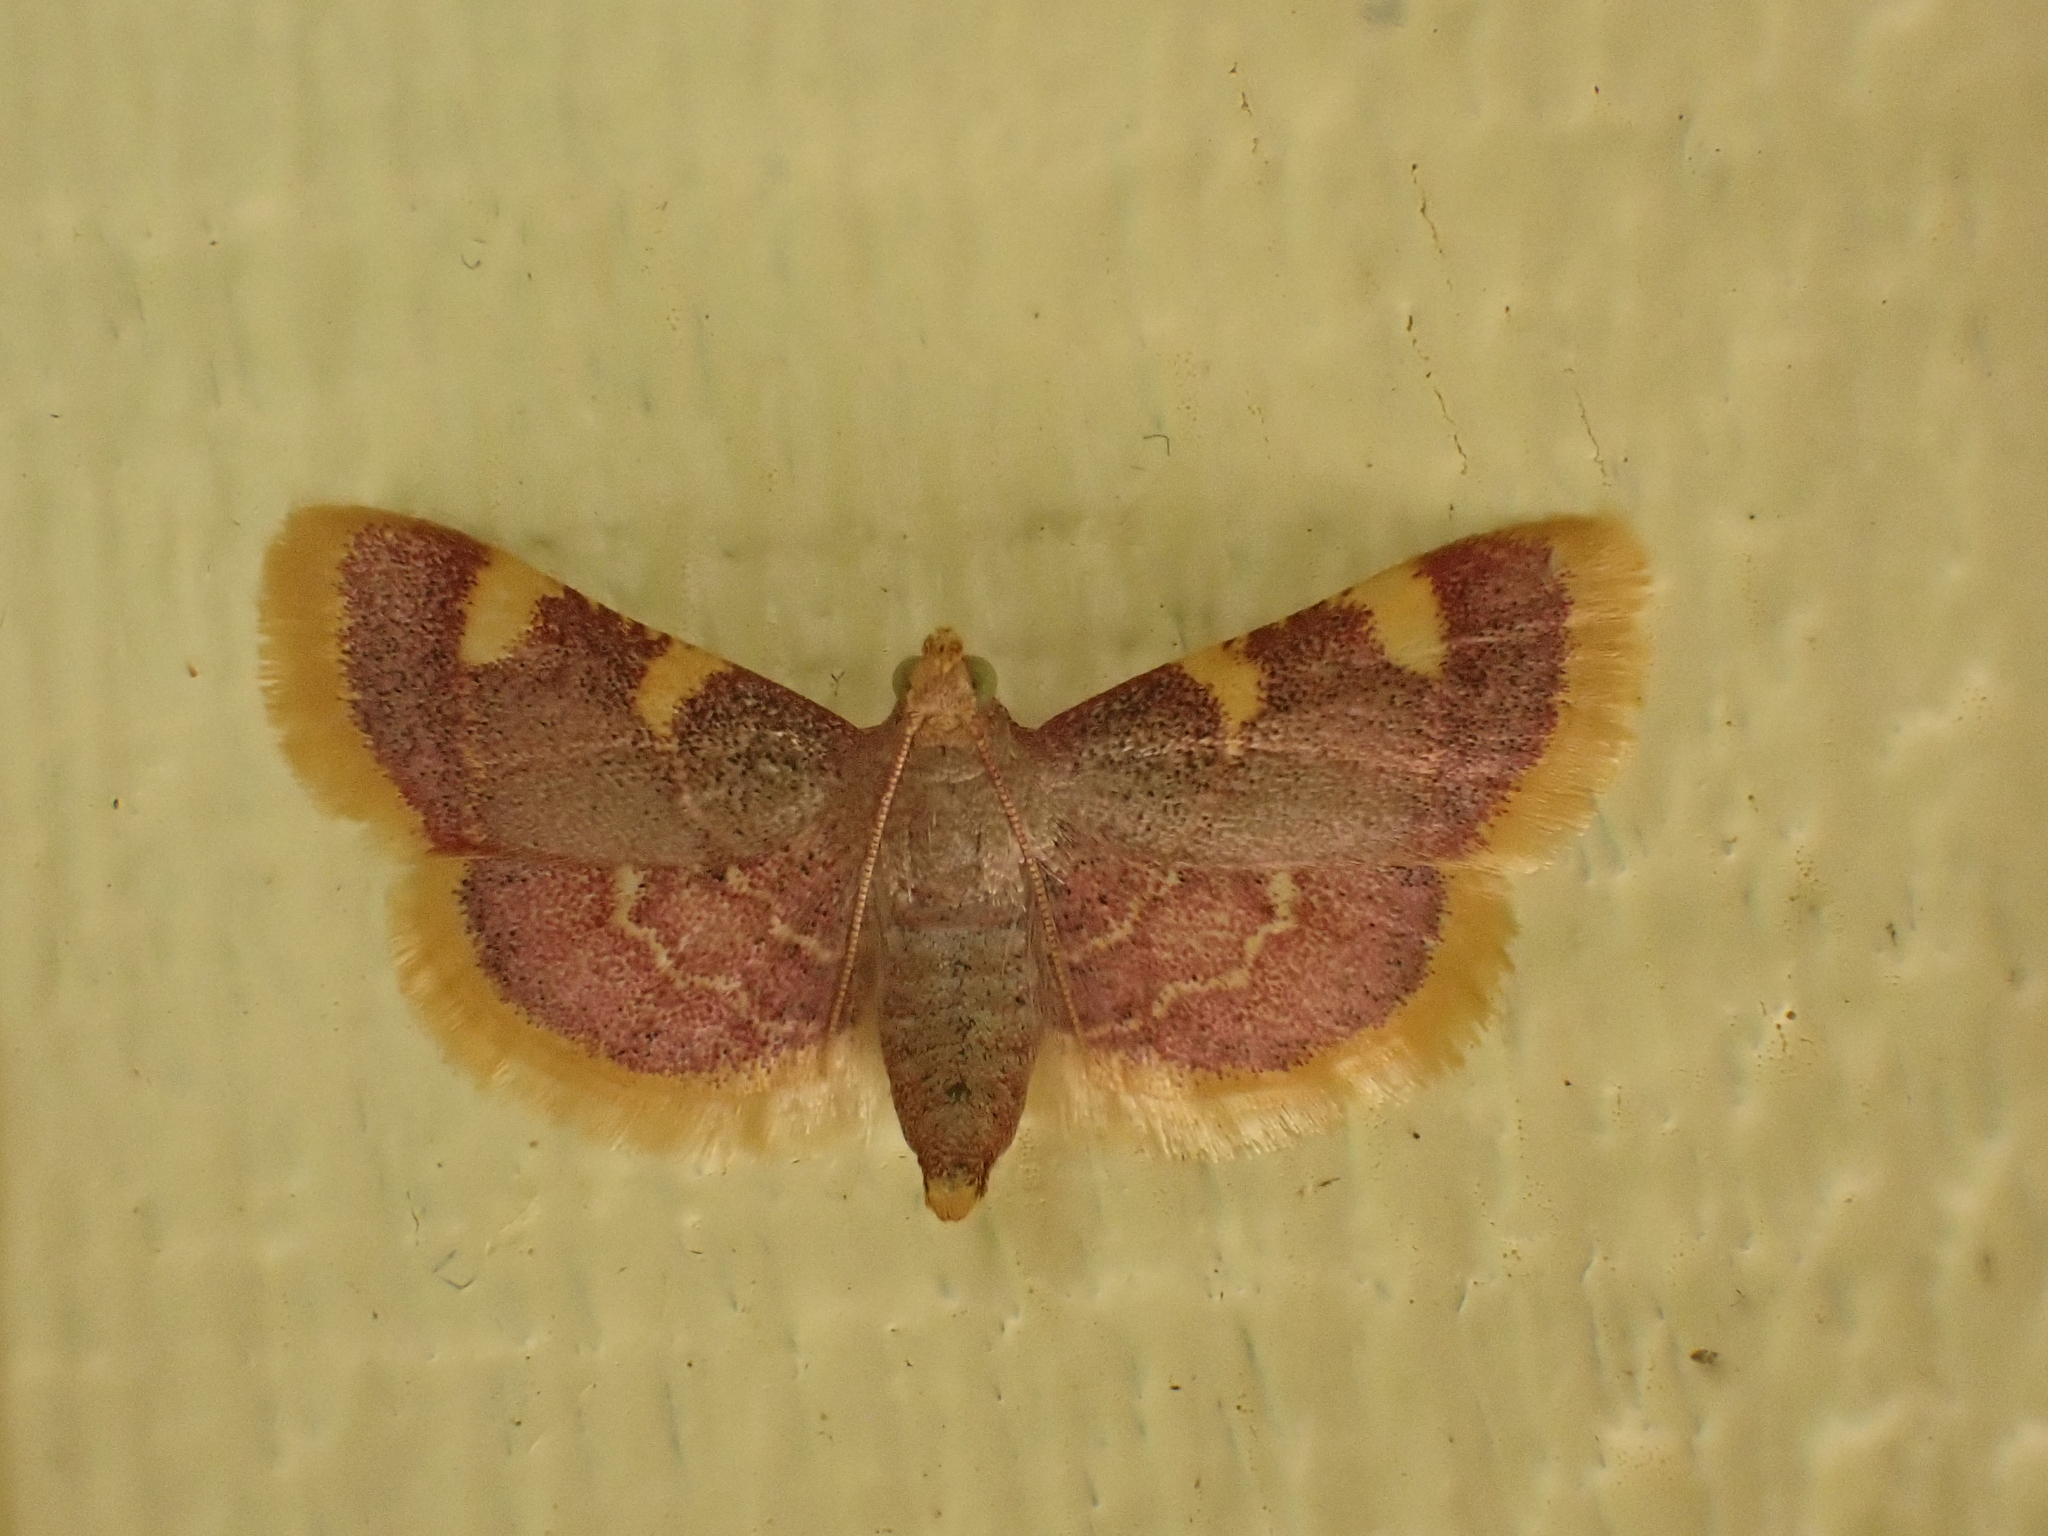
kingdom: Animalia
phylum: Arthropoda
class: Insecta
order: Lepidoptera
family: Pyralidae
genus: Hypsopygia
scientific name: Hypsopygia costalis
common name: Gold triangle
